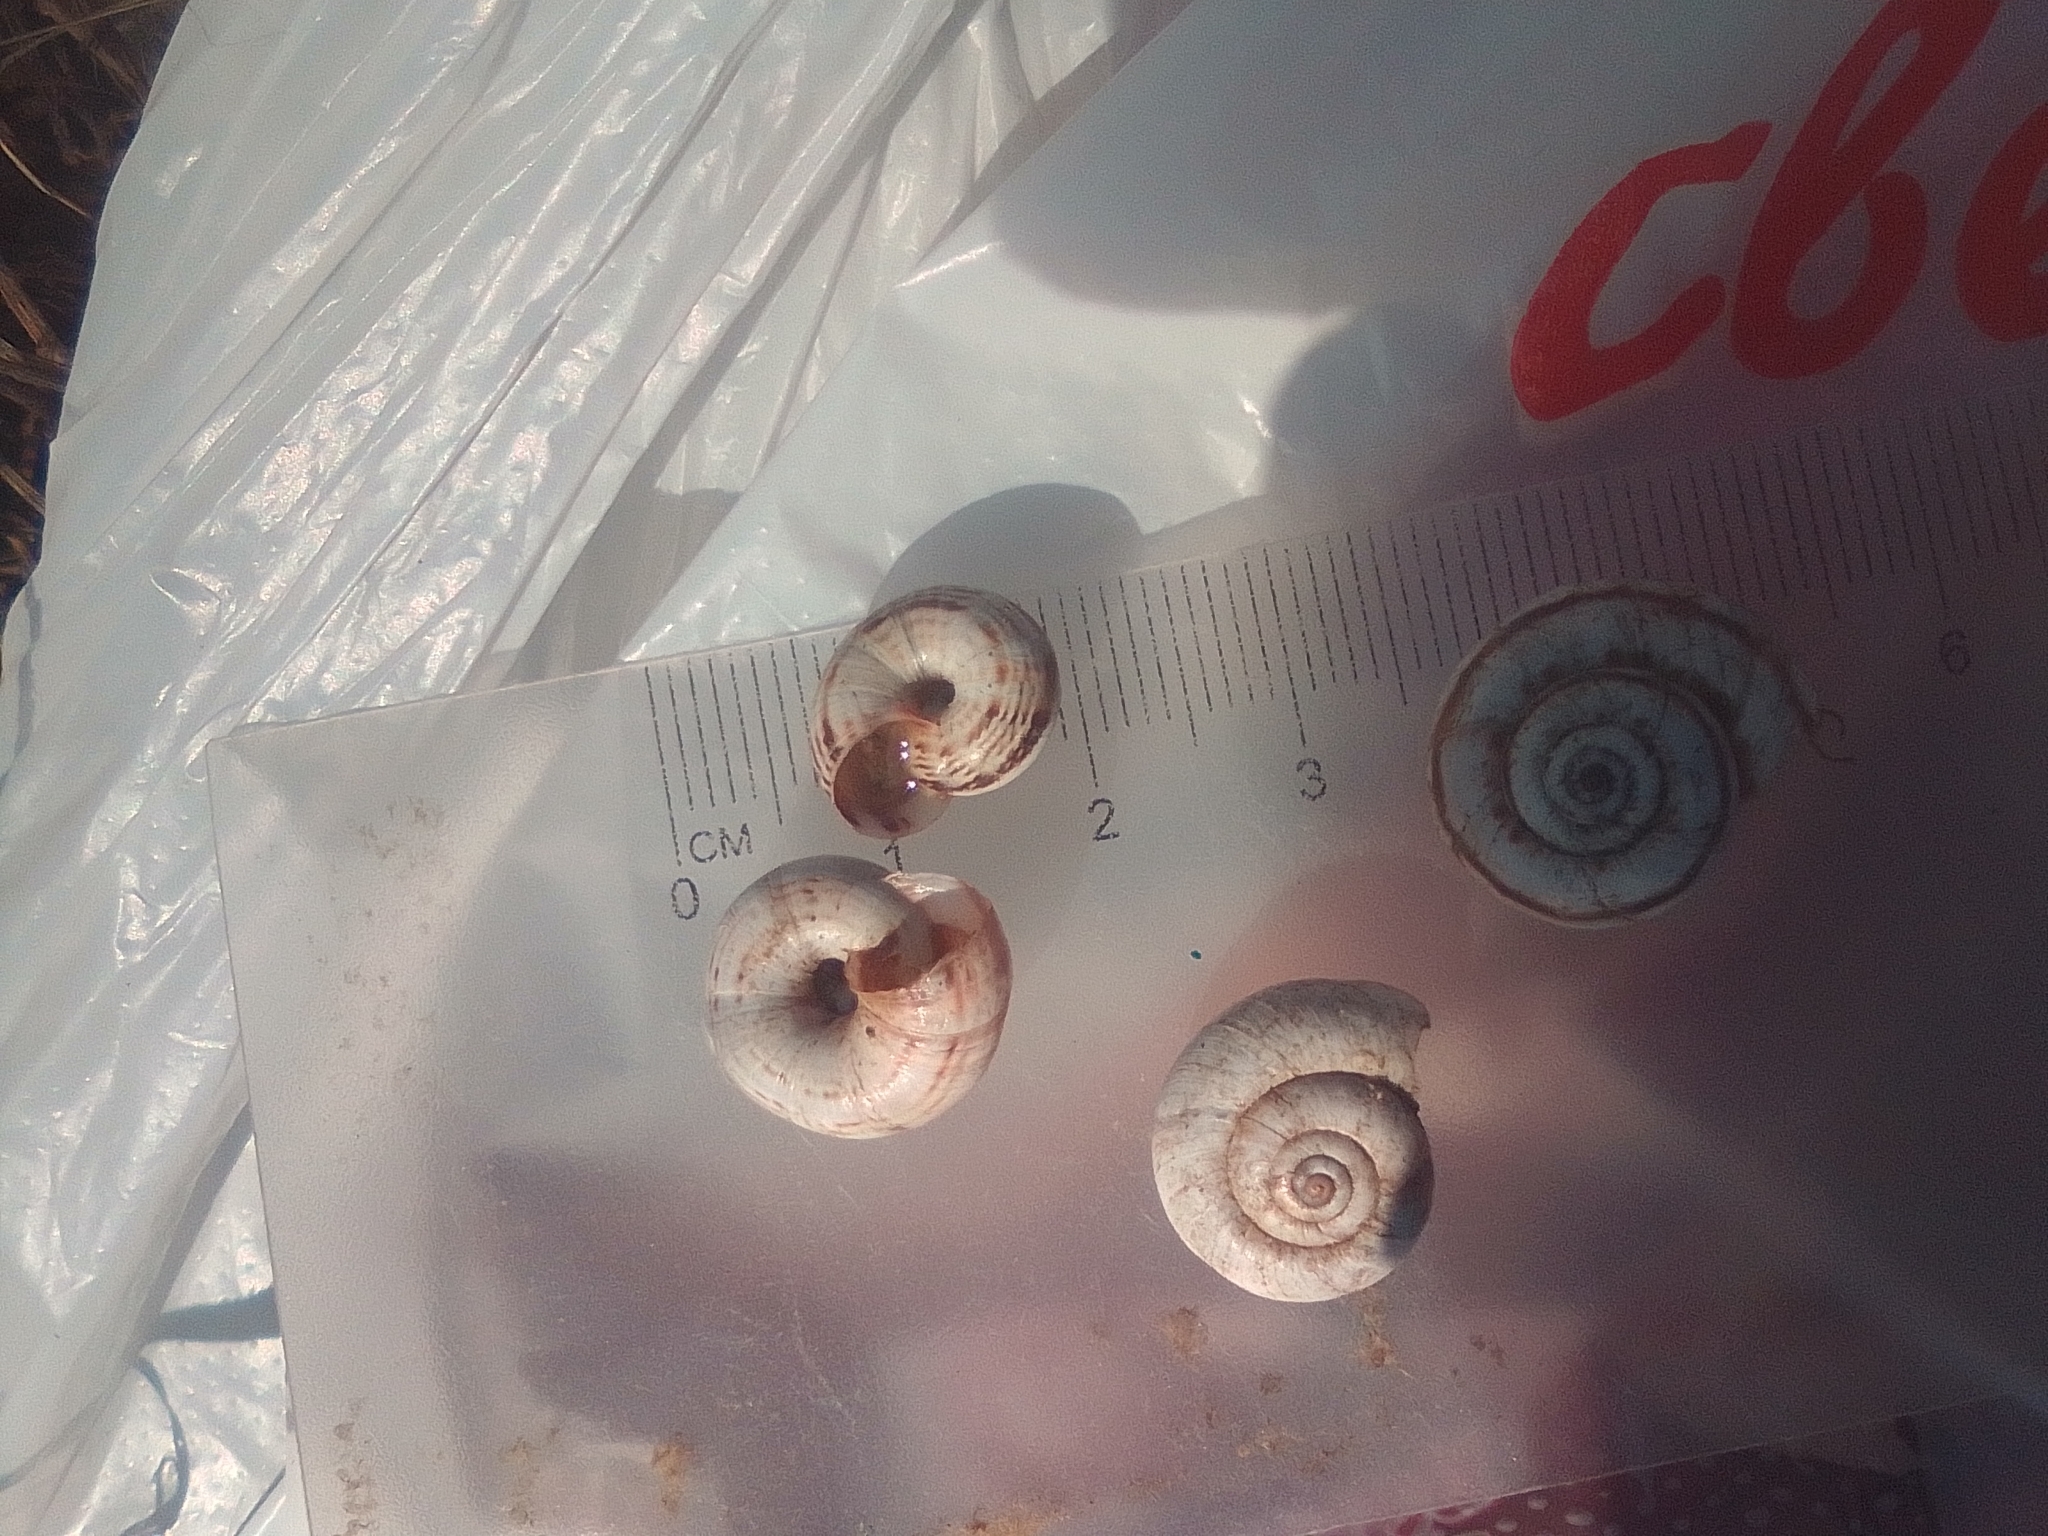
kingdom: Animalia
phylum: Mollusca
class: Gastropoda
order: Stylommatophora
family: Geomitridae
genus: Xeropicta
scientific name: Xeropicta derbentina
